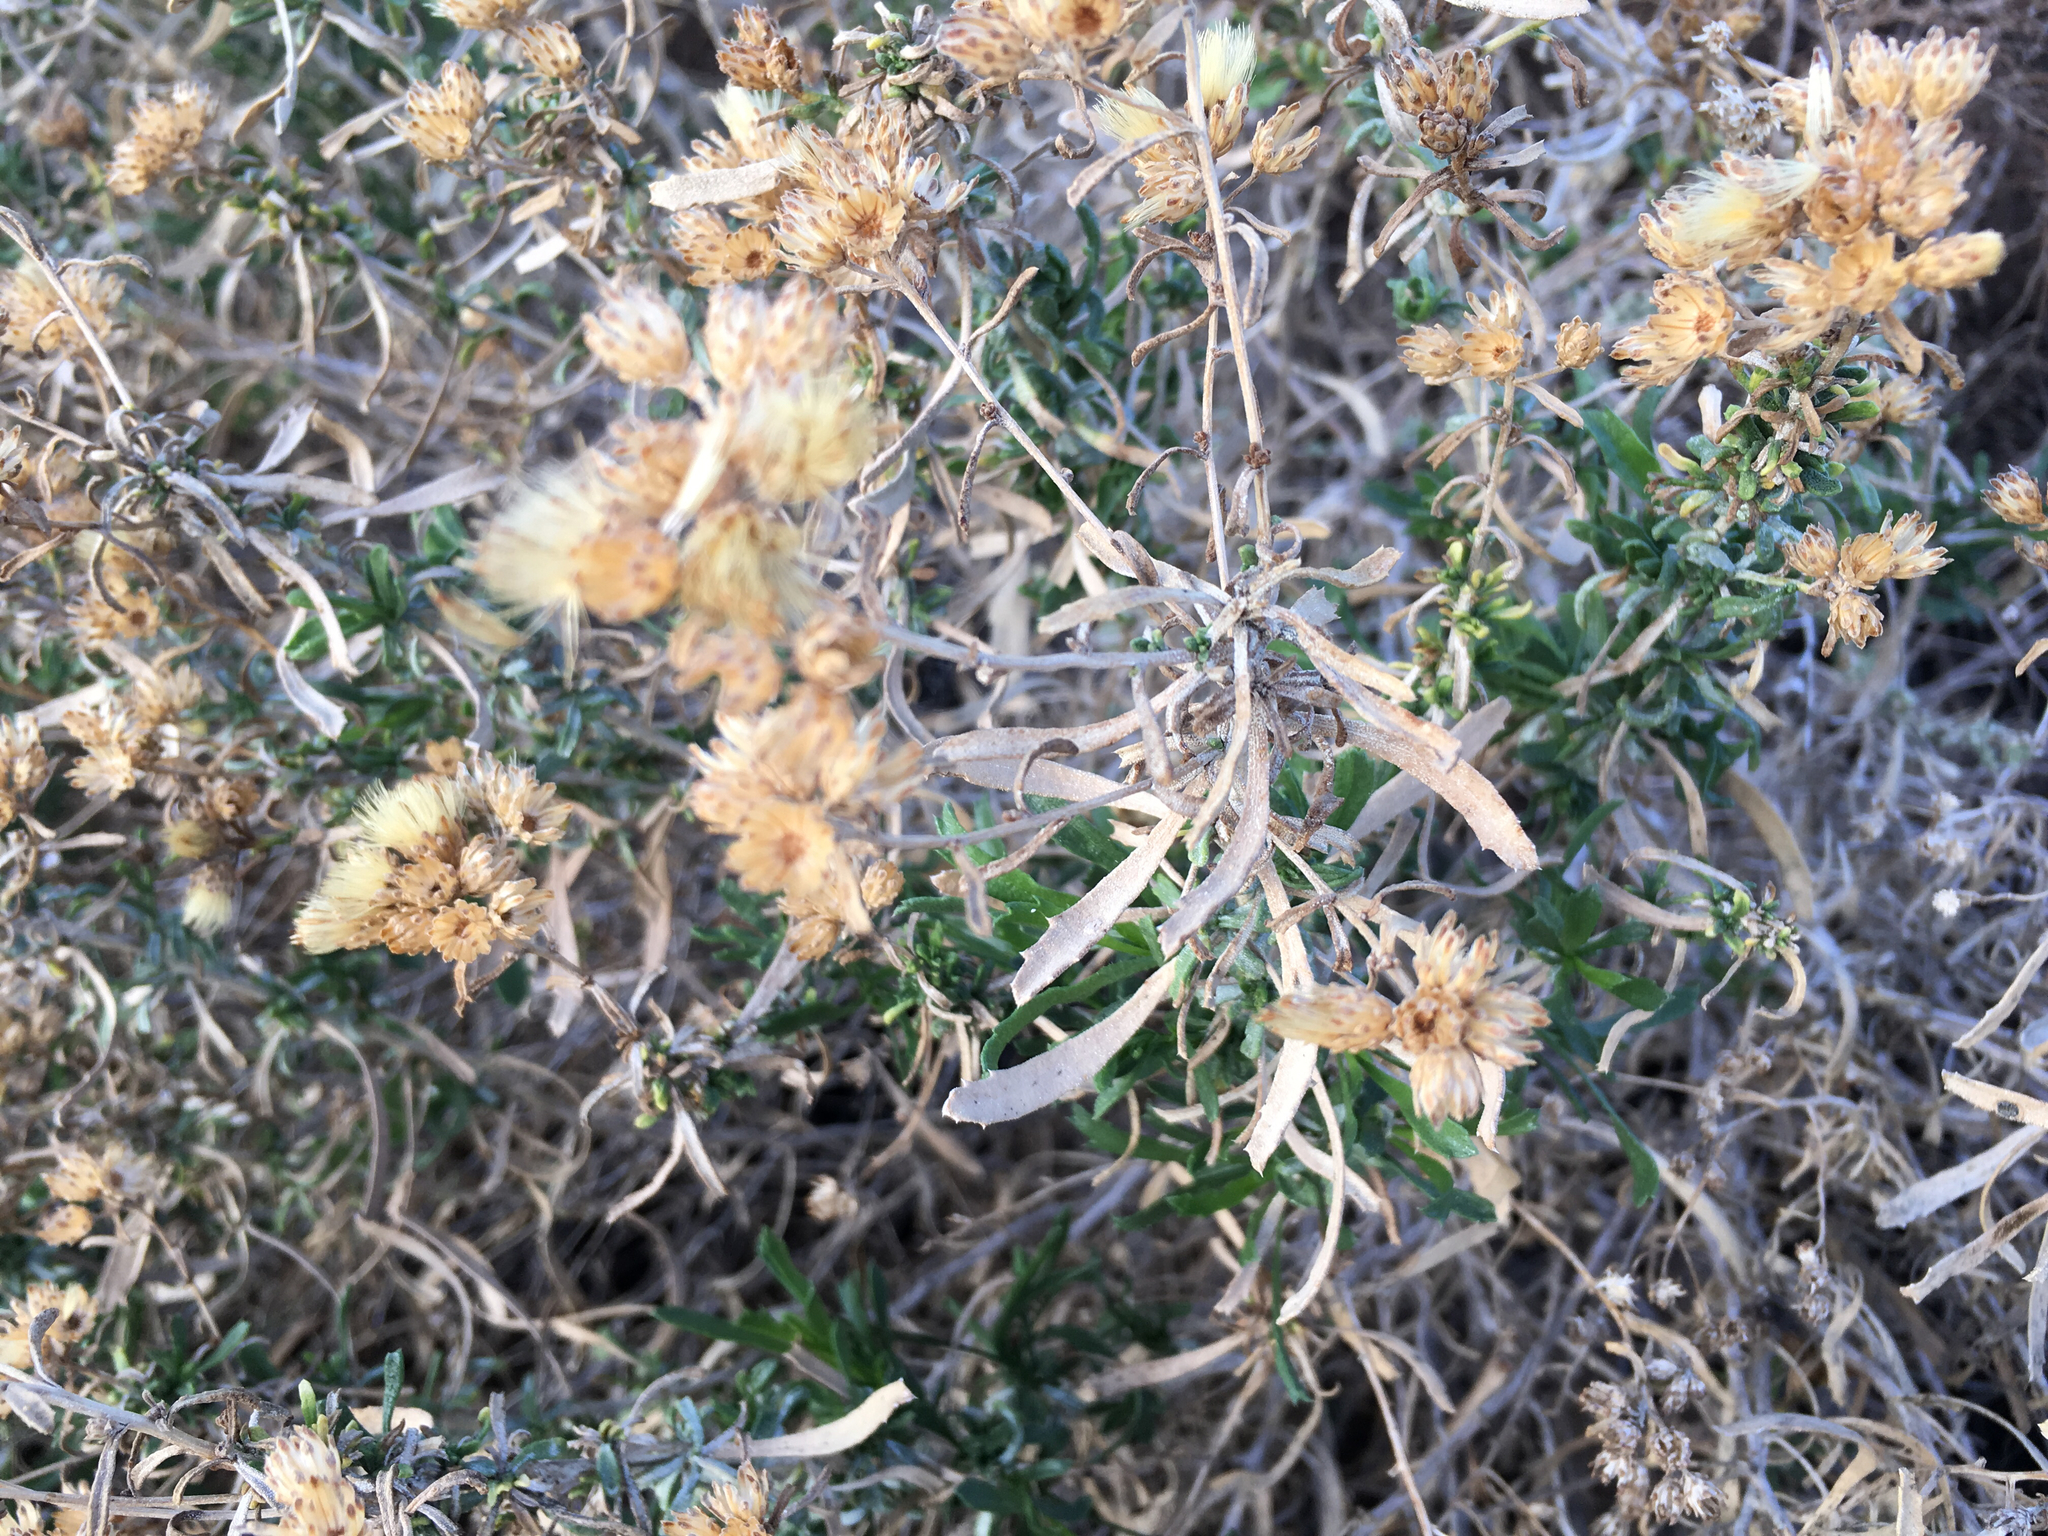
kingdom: Plantae
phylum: Tracheophyta
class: Magnoliopsida
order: Asterales
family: Asteraceae
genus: Isocoma
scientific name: Isocoma acradenia
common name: Alkali jimmyweed
